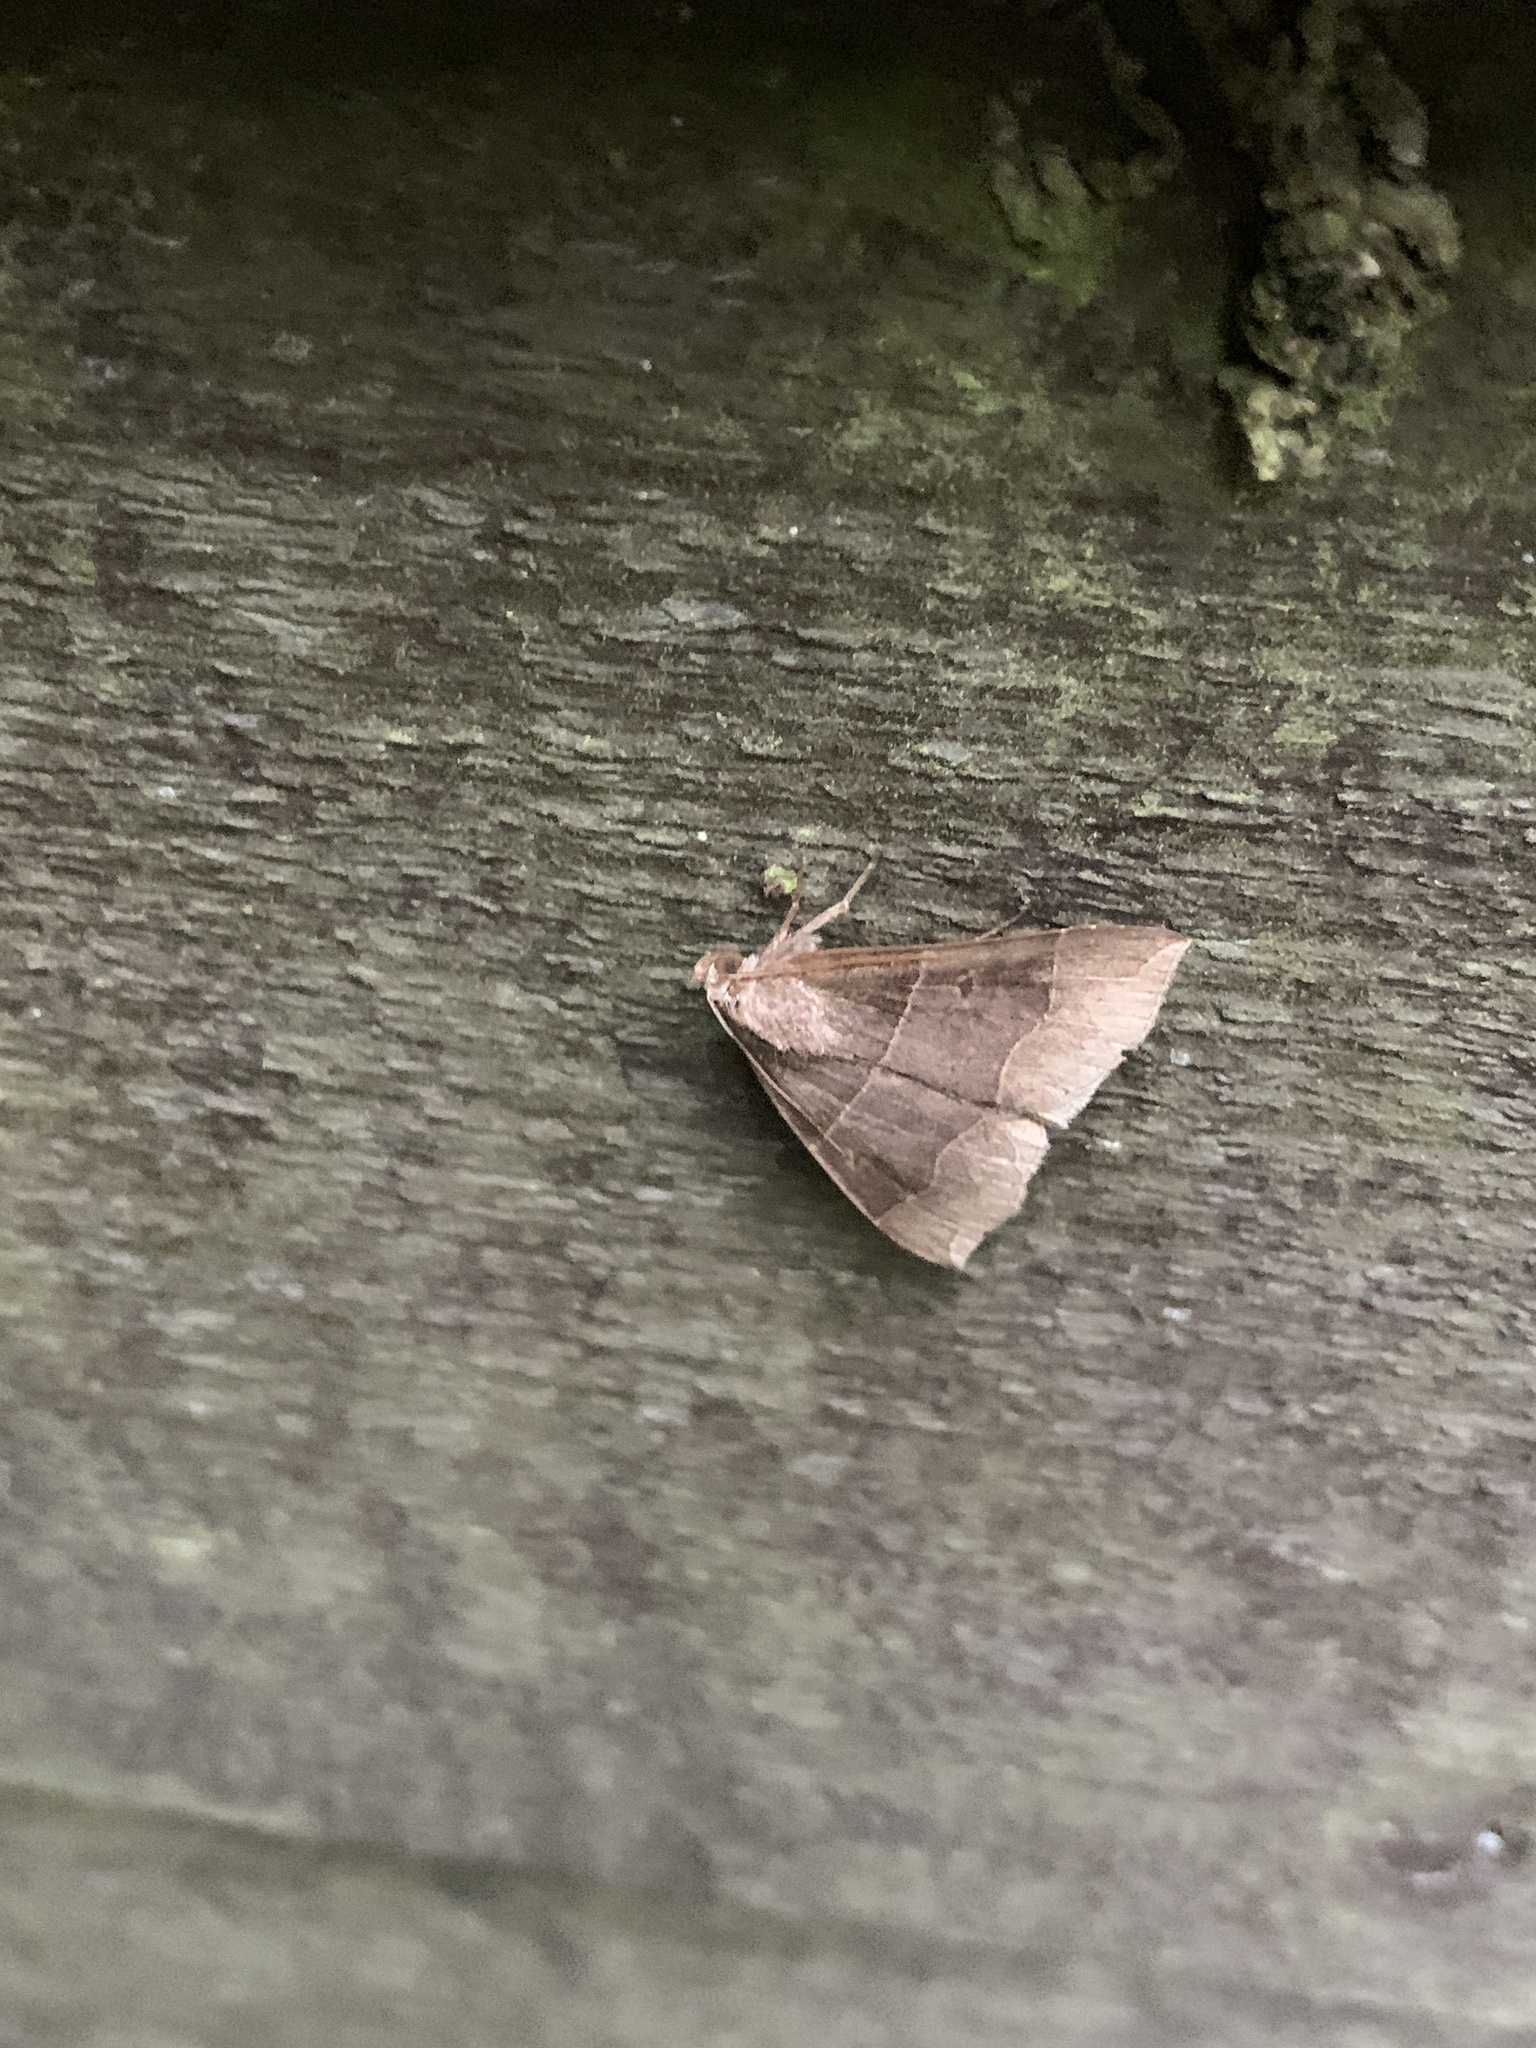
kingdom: Animalia
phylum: Arthropoda
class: Insecta
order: Lepidoptera
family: Erebidae
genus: Parallelia
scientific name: Parallelia bistriaris
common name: Maple looper moth
